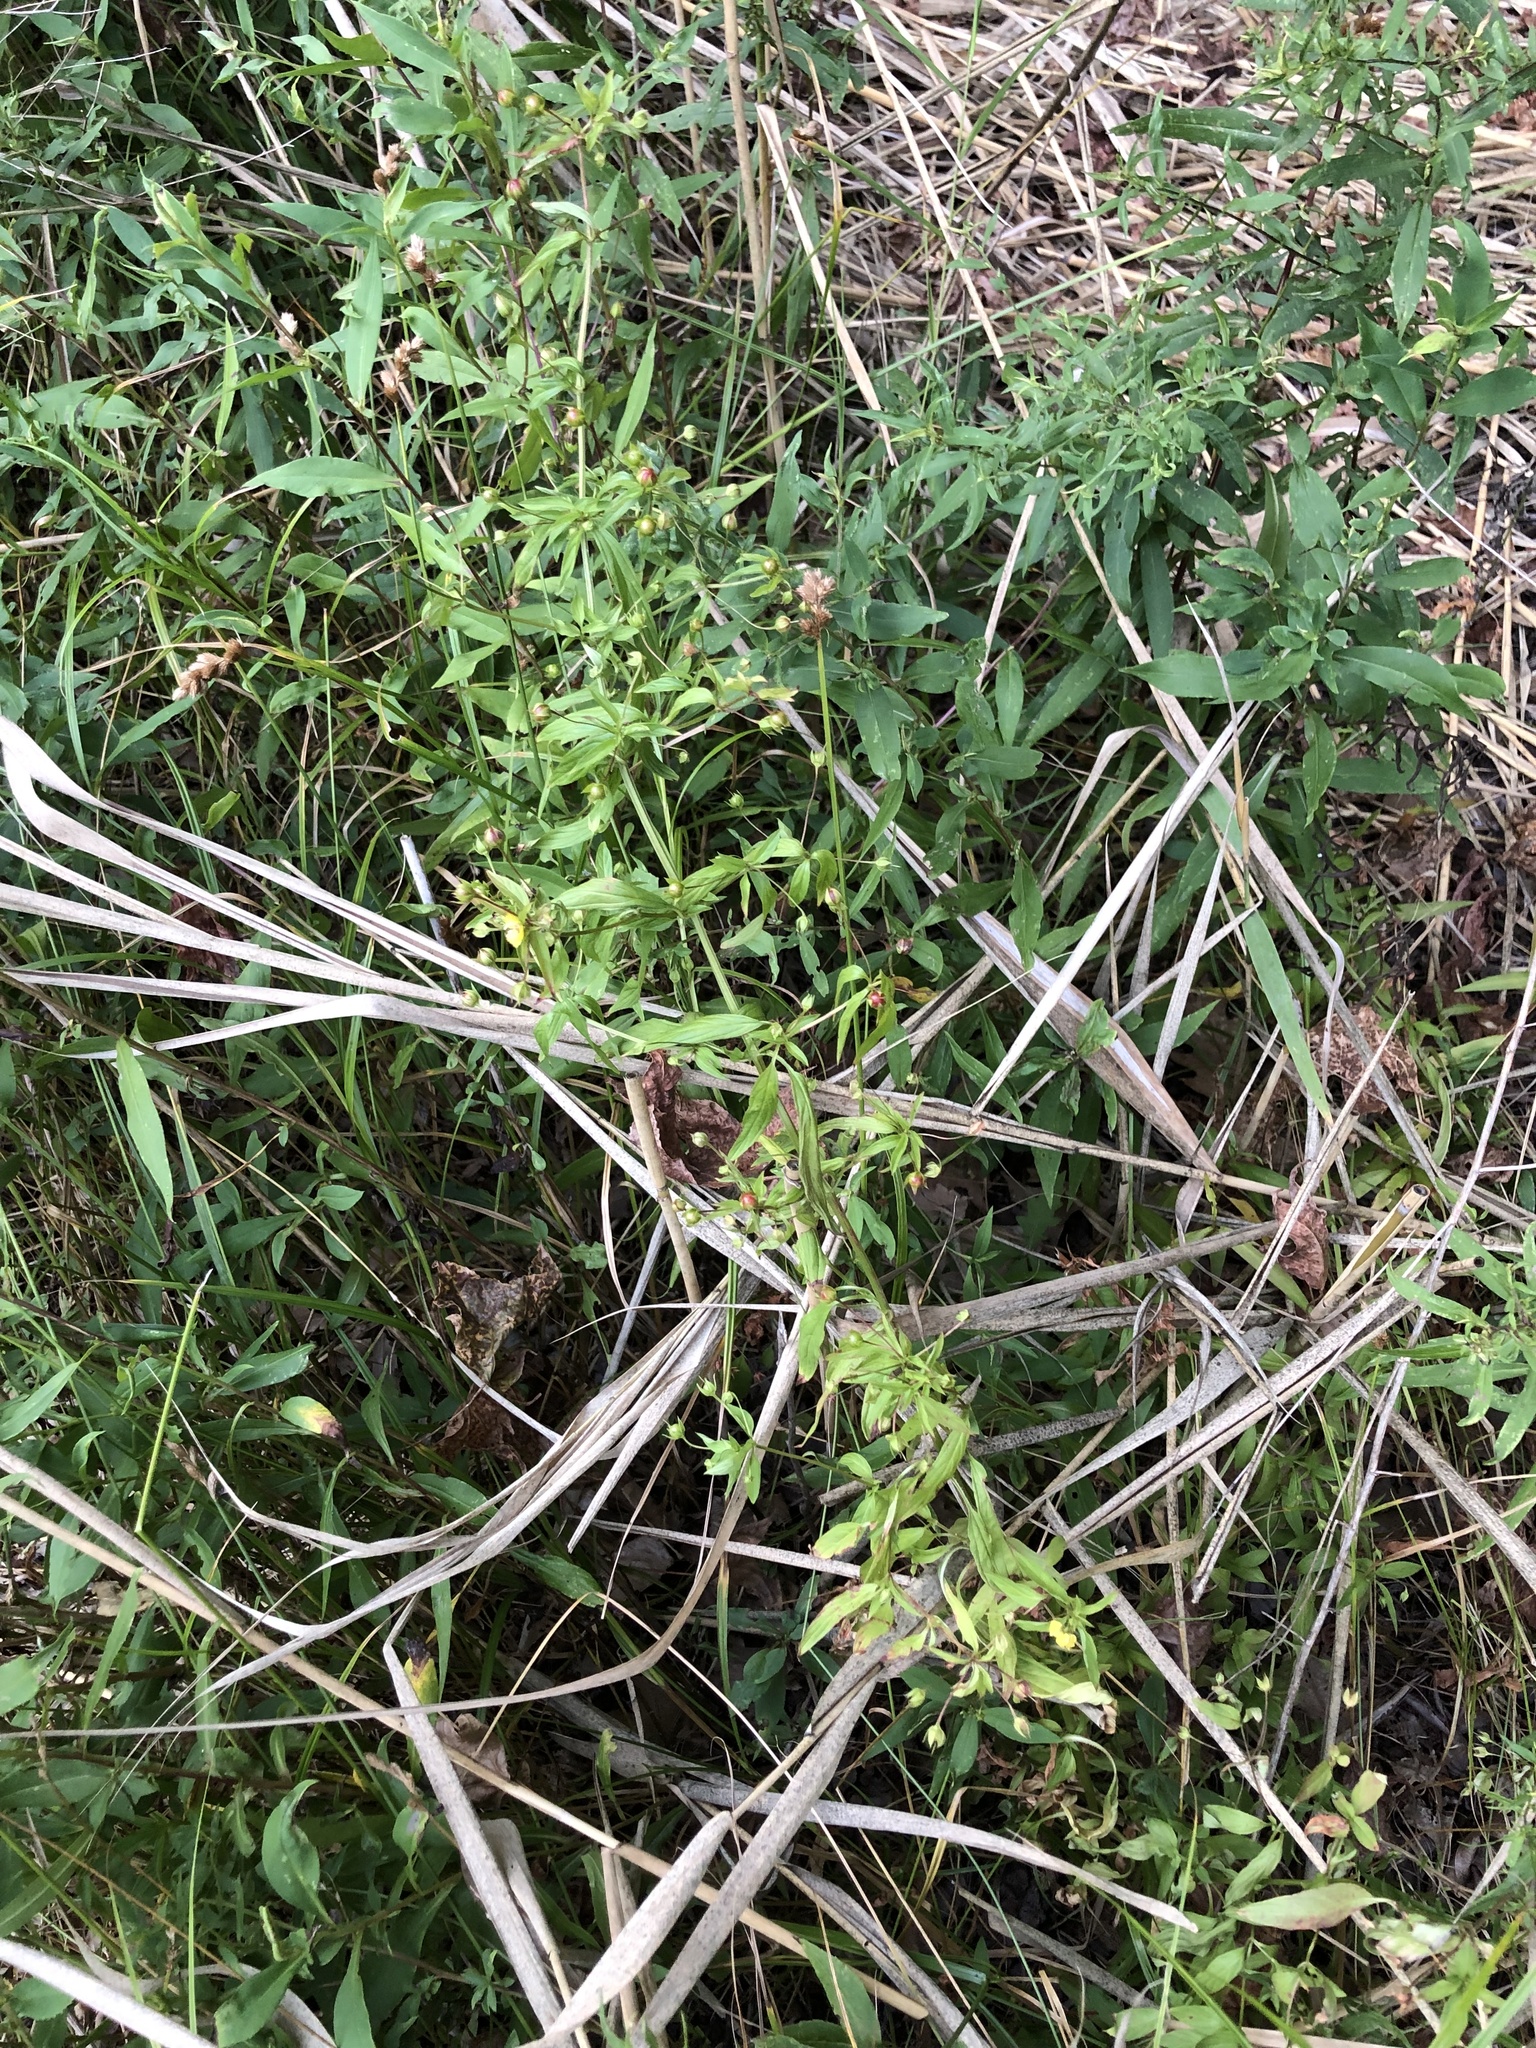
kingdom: Plantae
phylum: Tracheophyta
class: Magnoliopsida
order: Ericales
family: Primulaceae
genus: Lysimachia
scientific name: Lysimachia lanceolata
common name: Lance-leaved loosestrife
